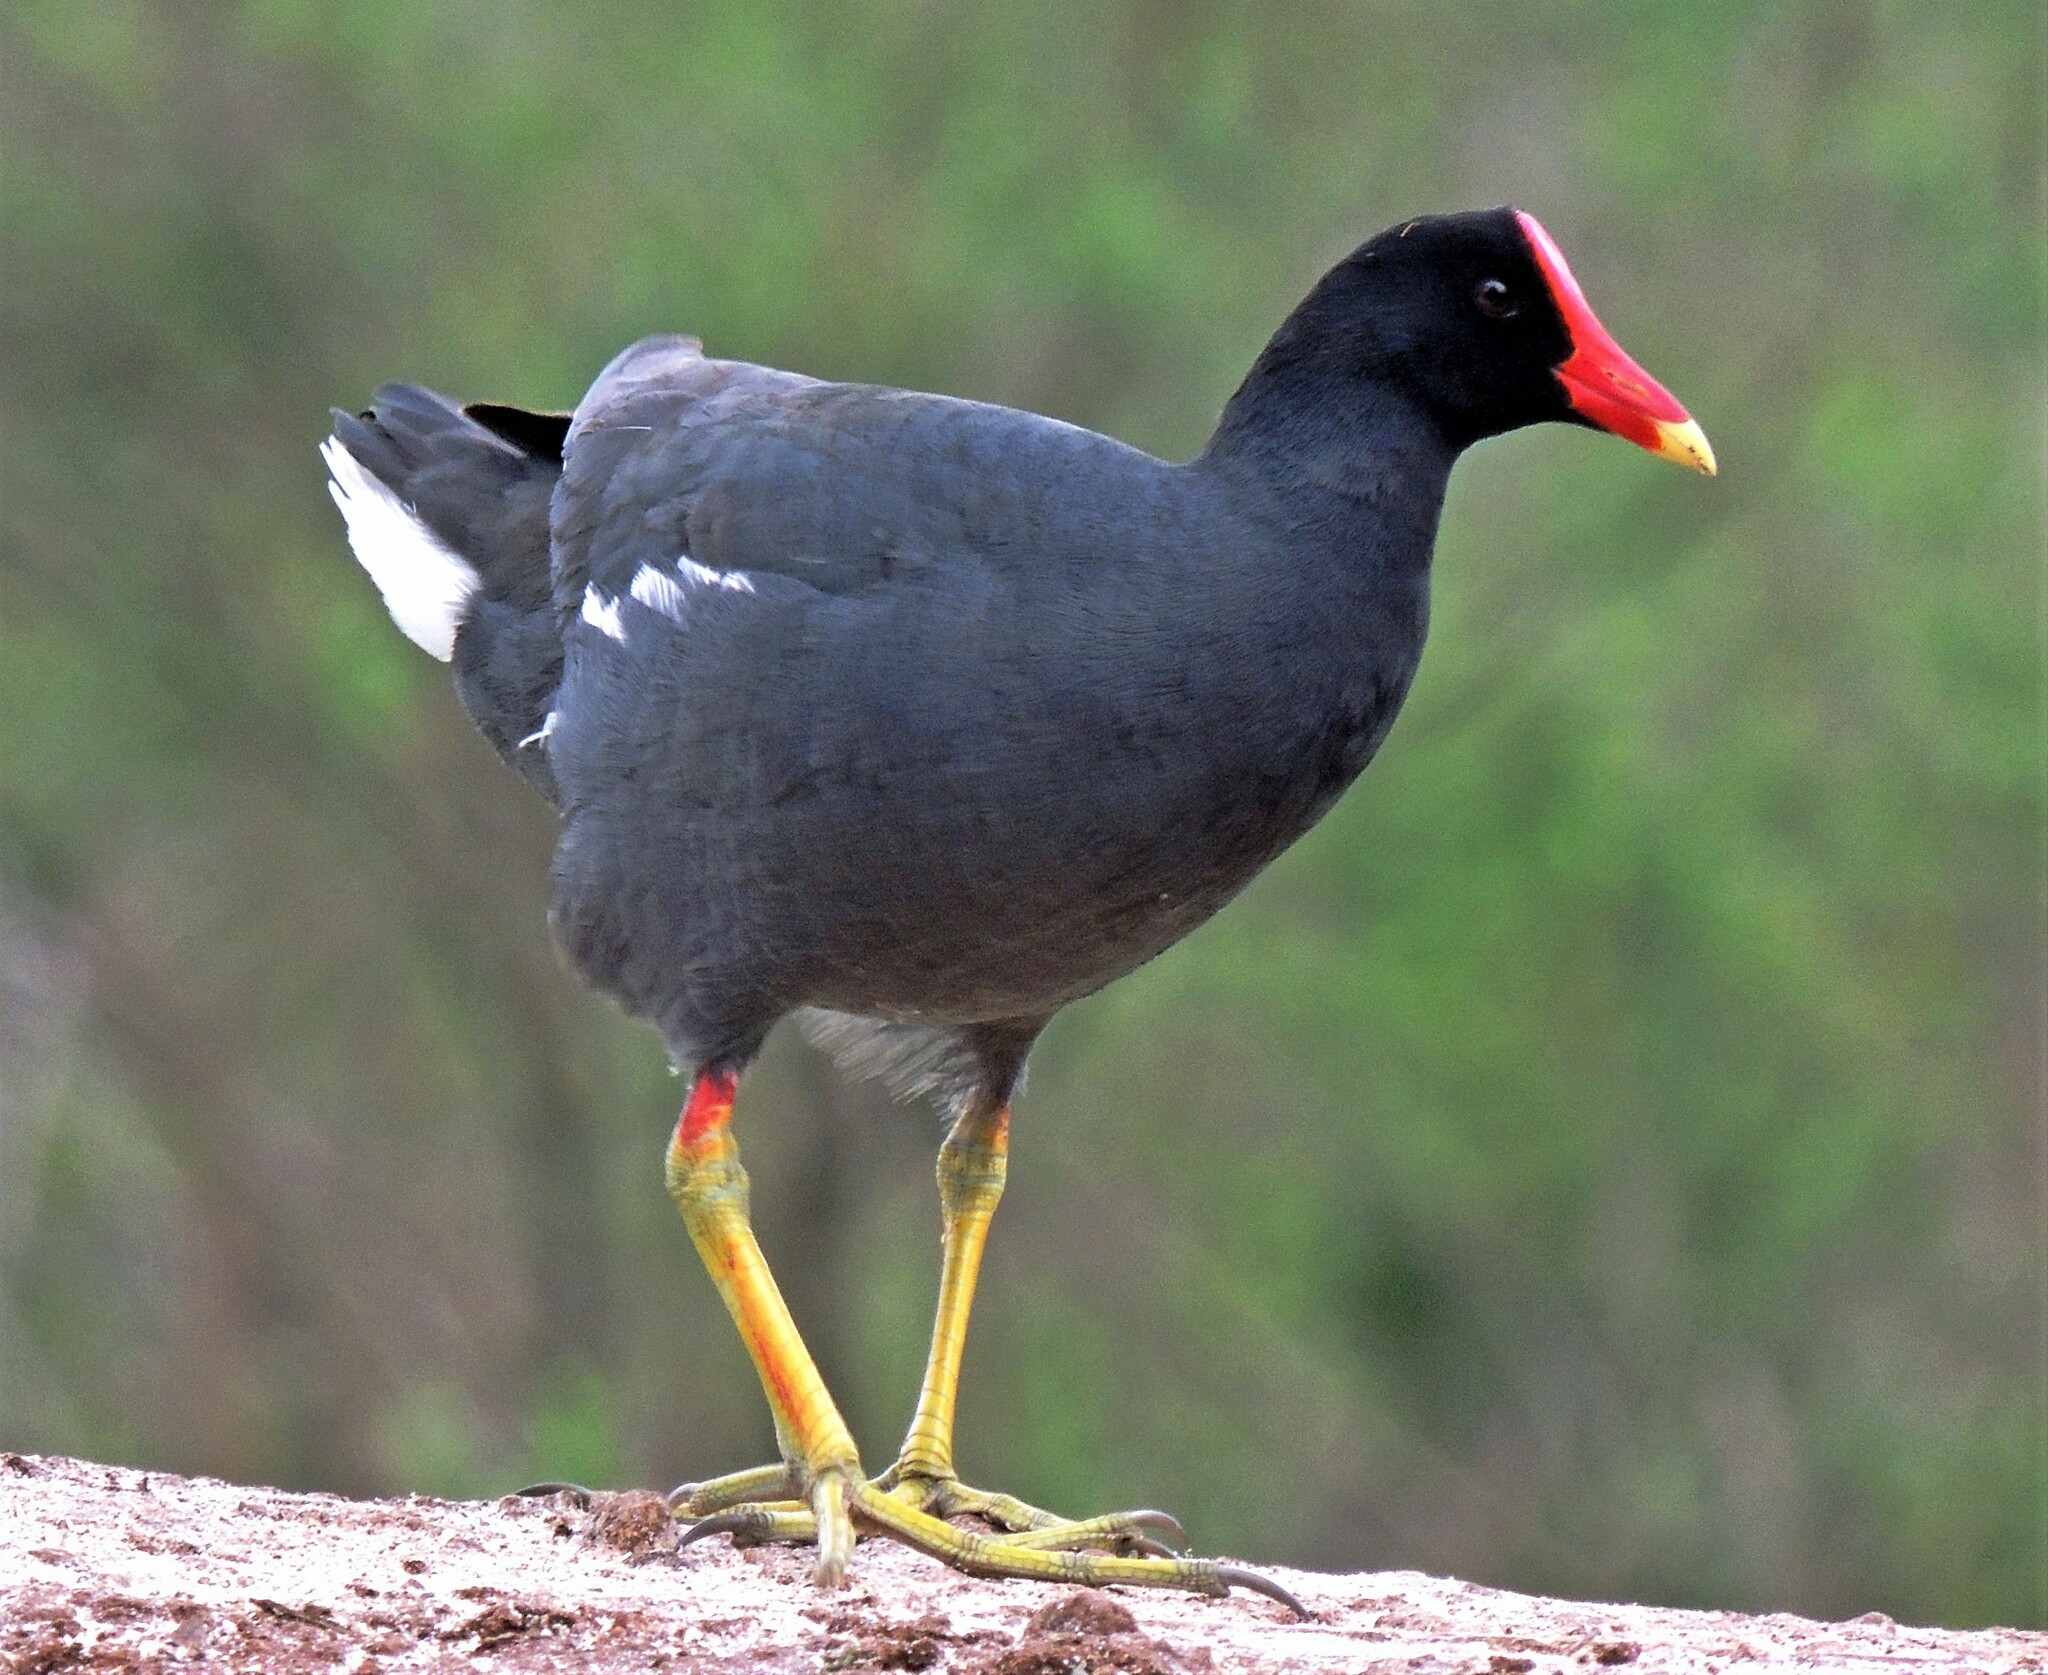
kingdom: Animalia
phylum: Chordata
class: Aves
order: Gruiformes
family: Rallidae
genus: Gallinula
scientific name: Gallinula chloropus
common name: Common moorhen
